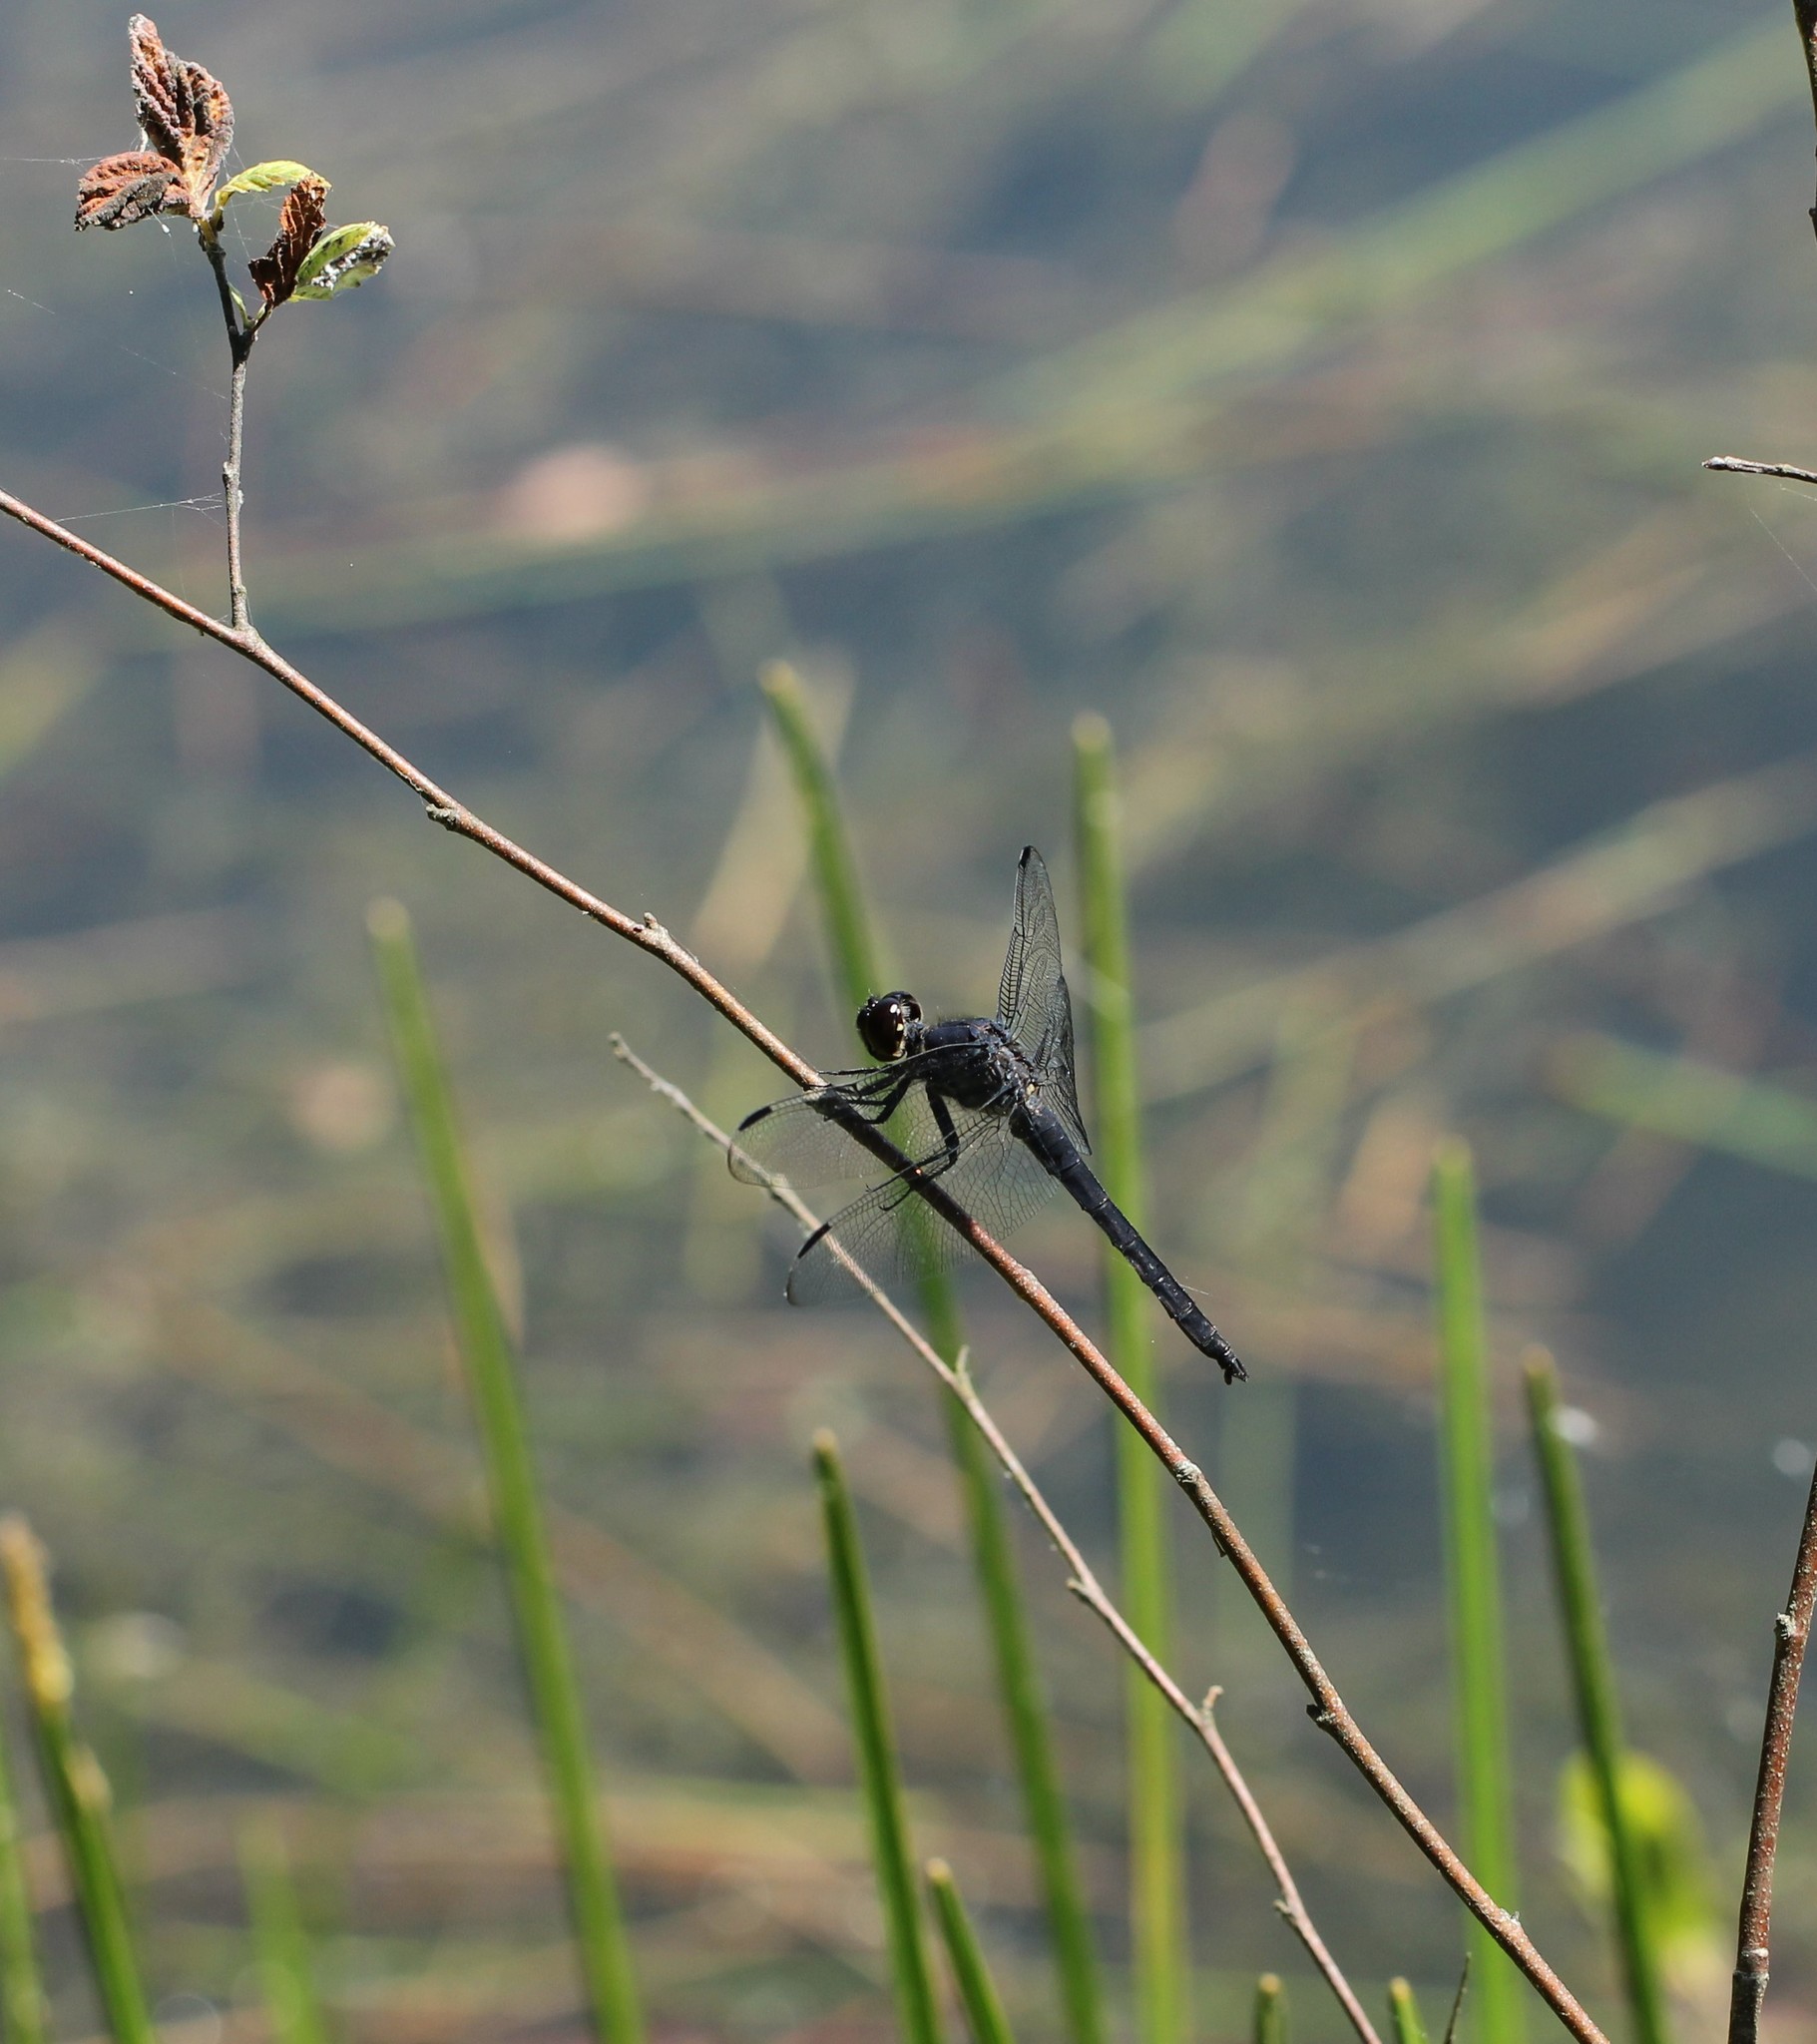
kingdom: Animalia
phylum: Arthropoda
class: Insecta
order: Odonata
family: Libellulidae
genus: Libellula
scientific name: Libellula incesta
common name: Slaty skimmer
